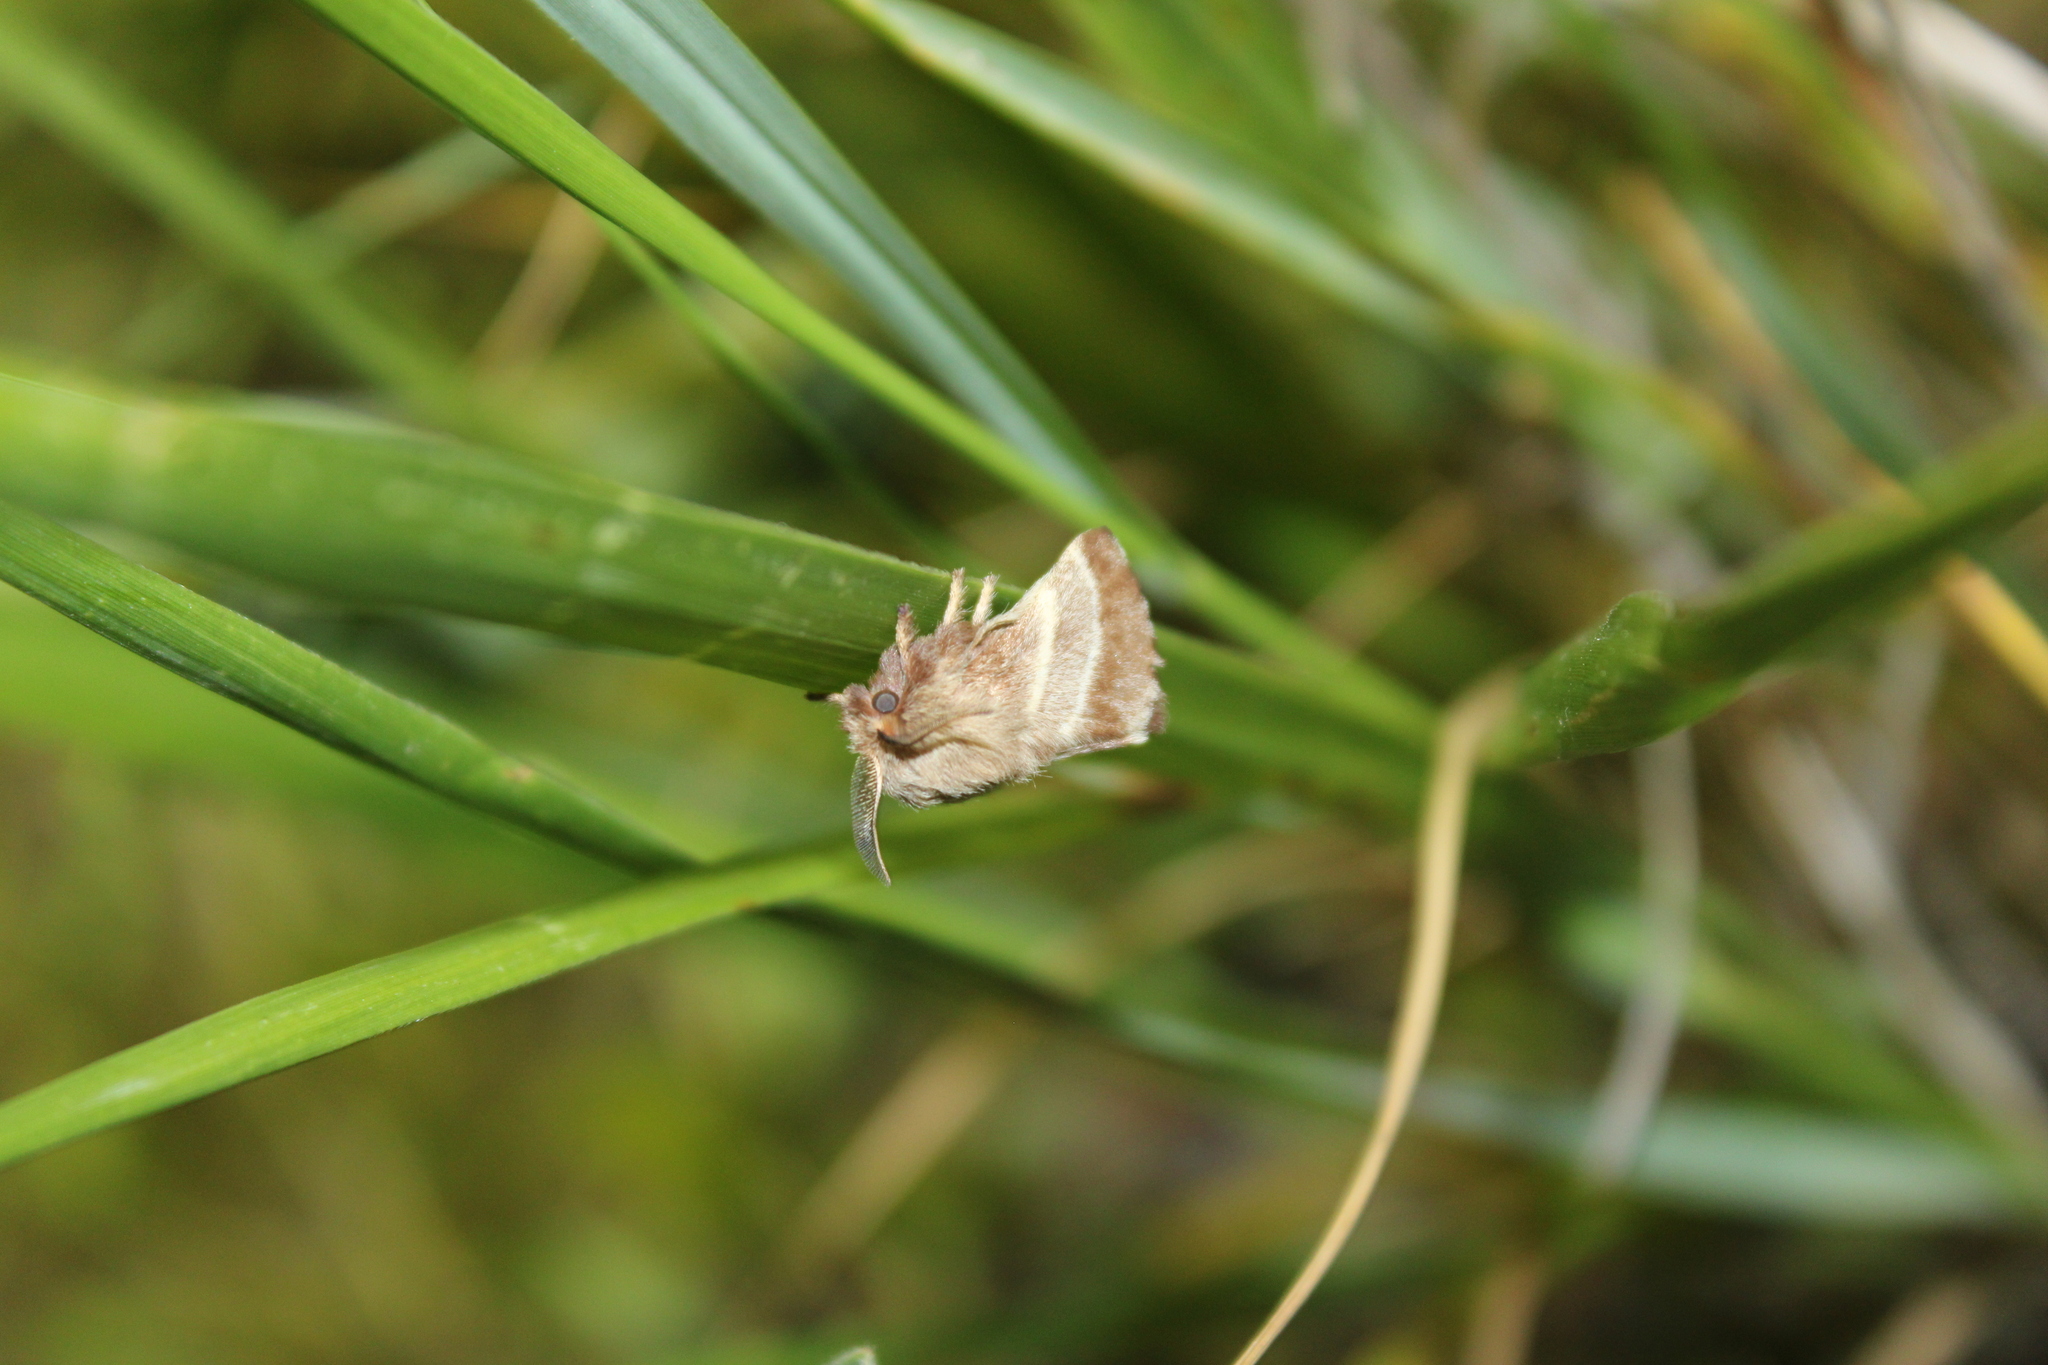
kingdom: Animalia
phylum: Arthropoda
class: Insecta
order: Lepidoptera
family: Lasiocampidae
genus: Malacosoma
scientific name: Malacosoma americana
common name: Eastern tent caterpillar moth
